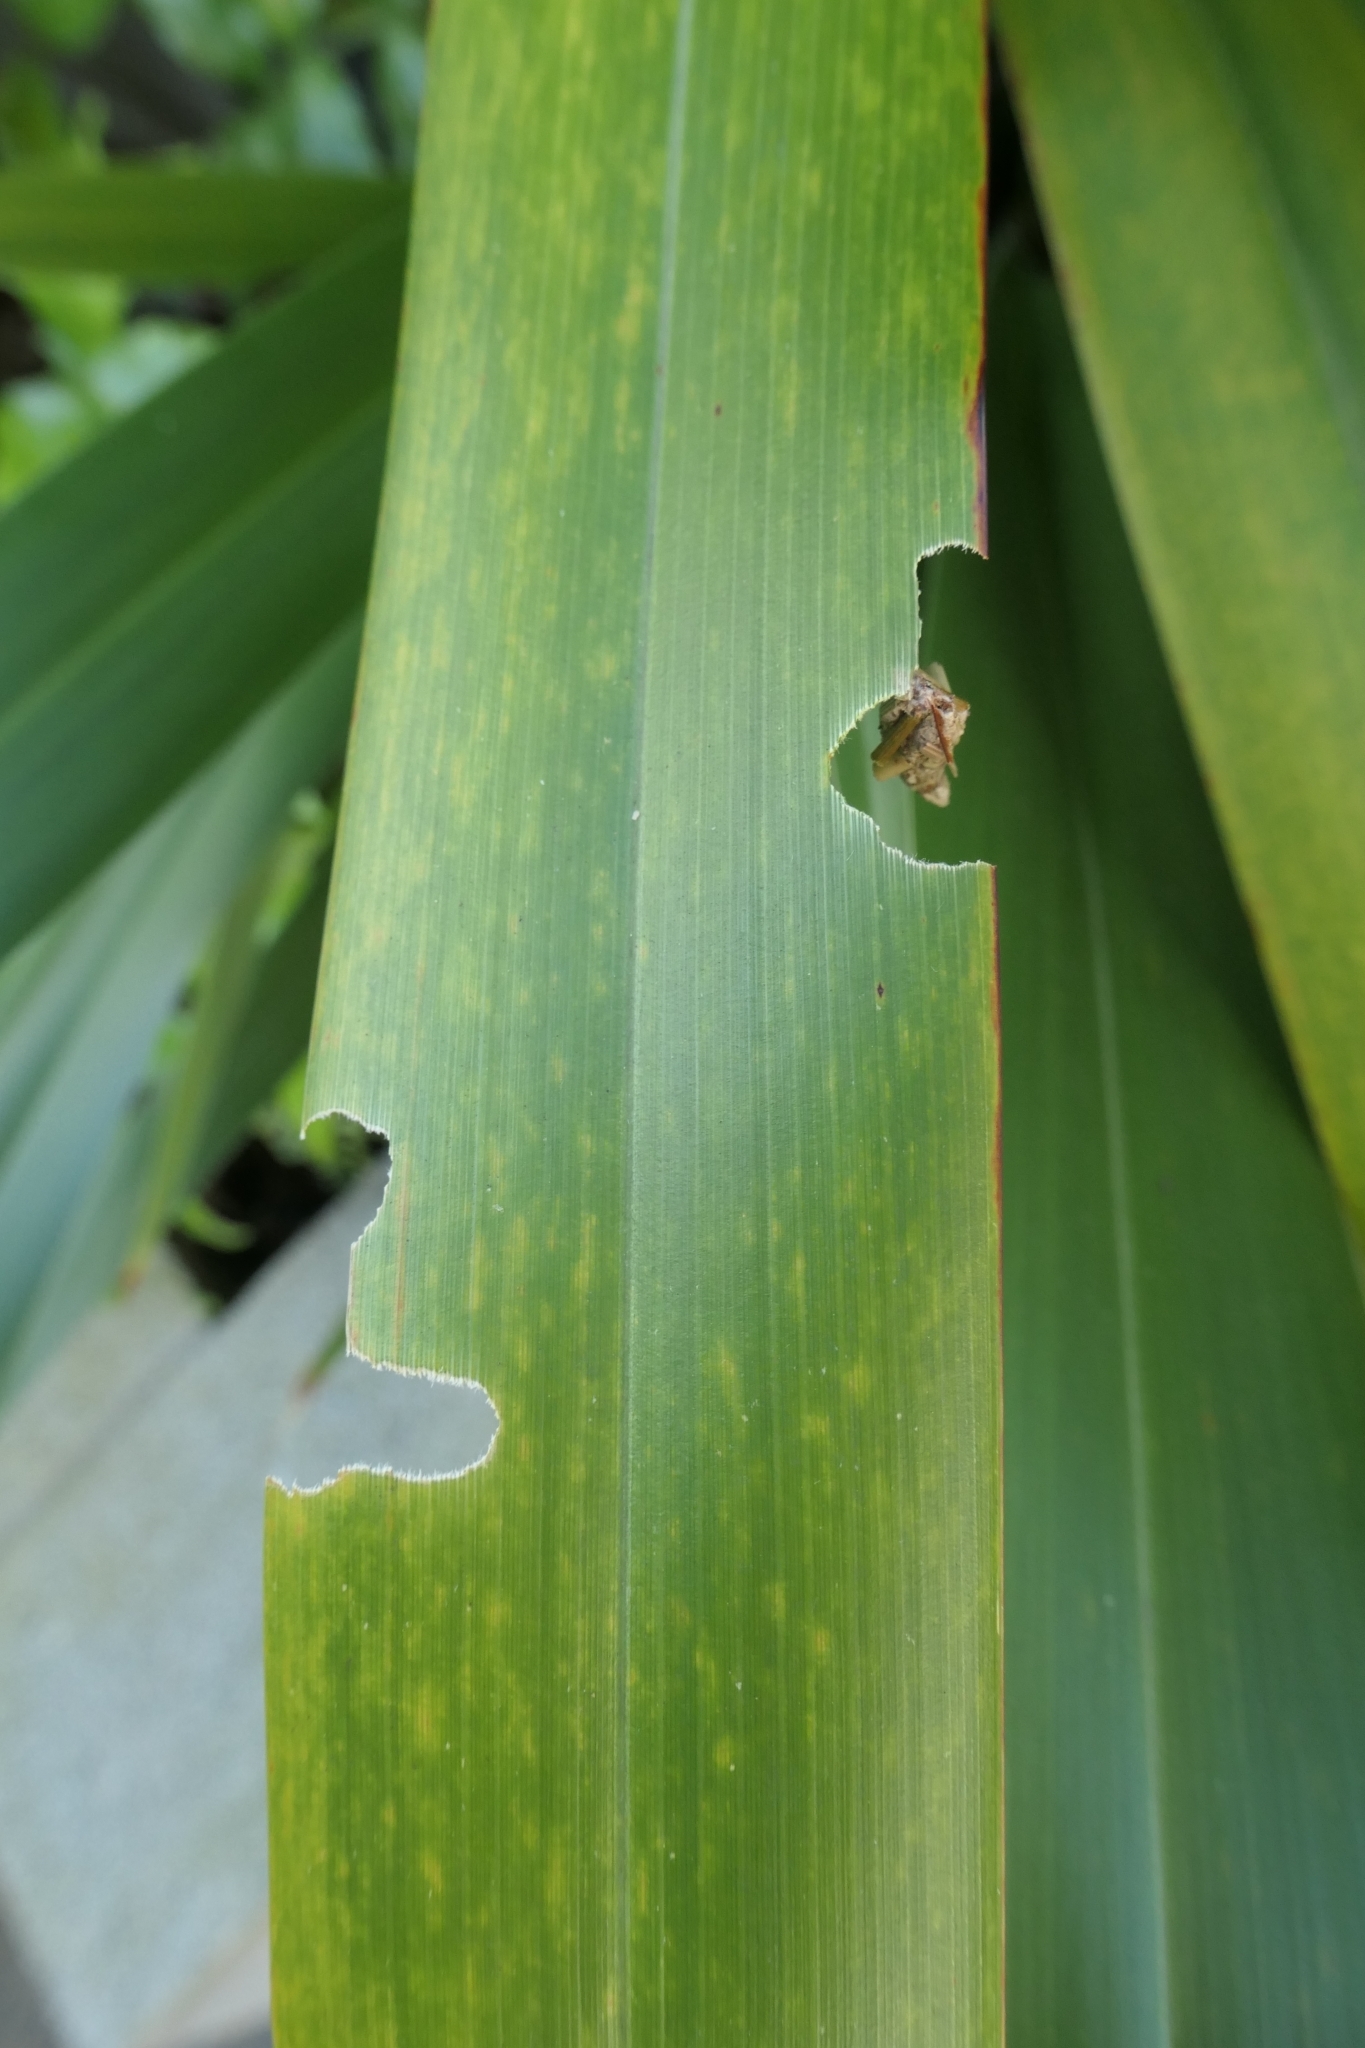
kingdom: Animalia
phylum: Arthropoda
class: Insecta
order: Lepidoptera
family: Psychidae
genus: Liothula
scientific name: Liothula omnivora
